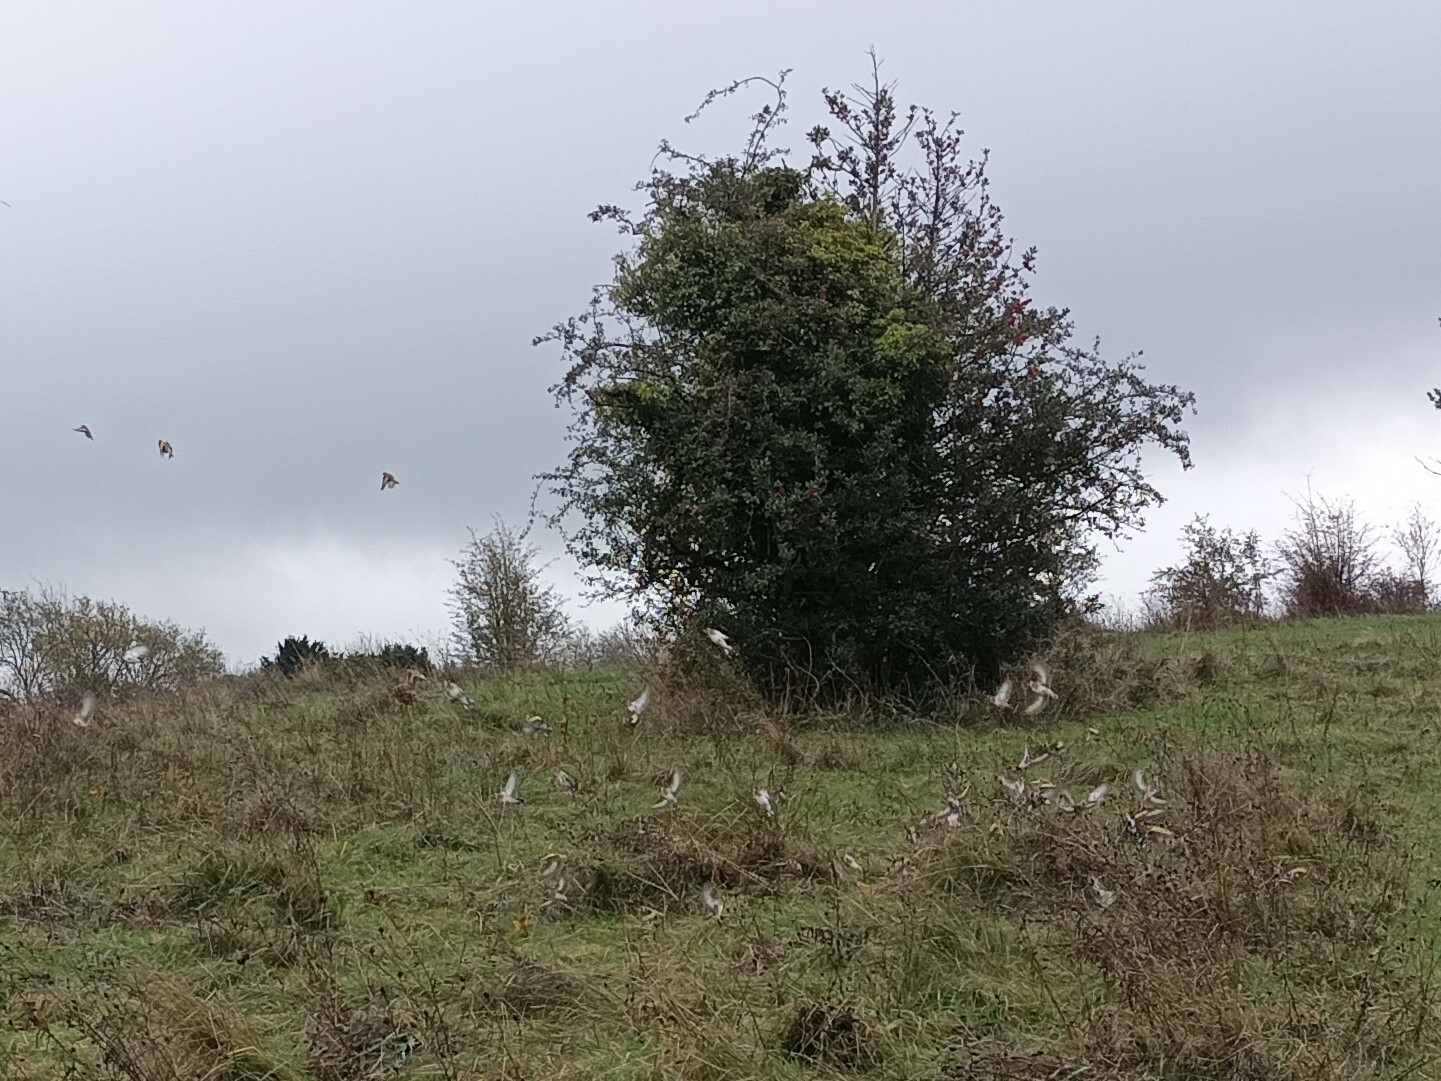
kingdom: Animalia
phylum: Chordata
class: Aves
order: Passeriformes
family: Fringillidae
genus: Carduelis
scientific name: Carduelis carduelis
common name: European goldfinch
